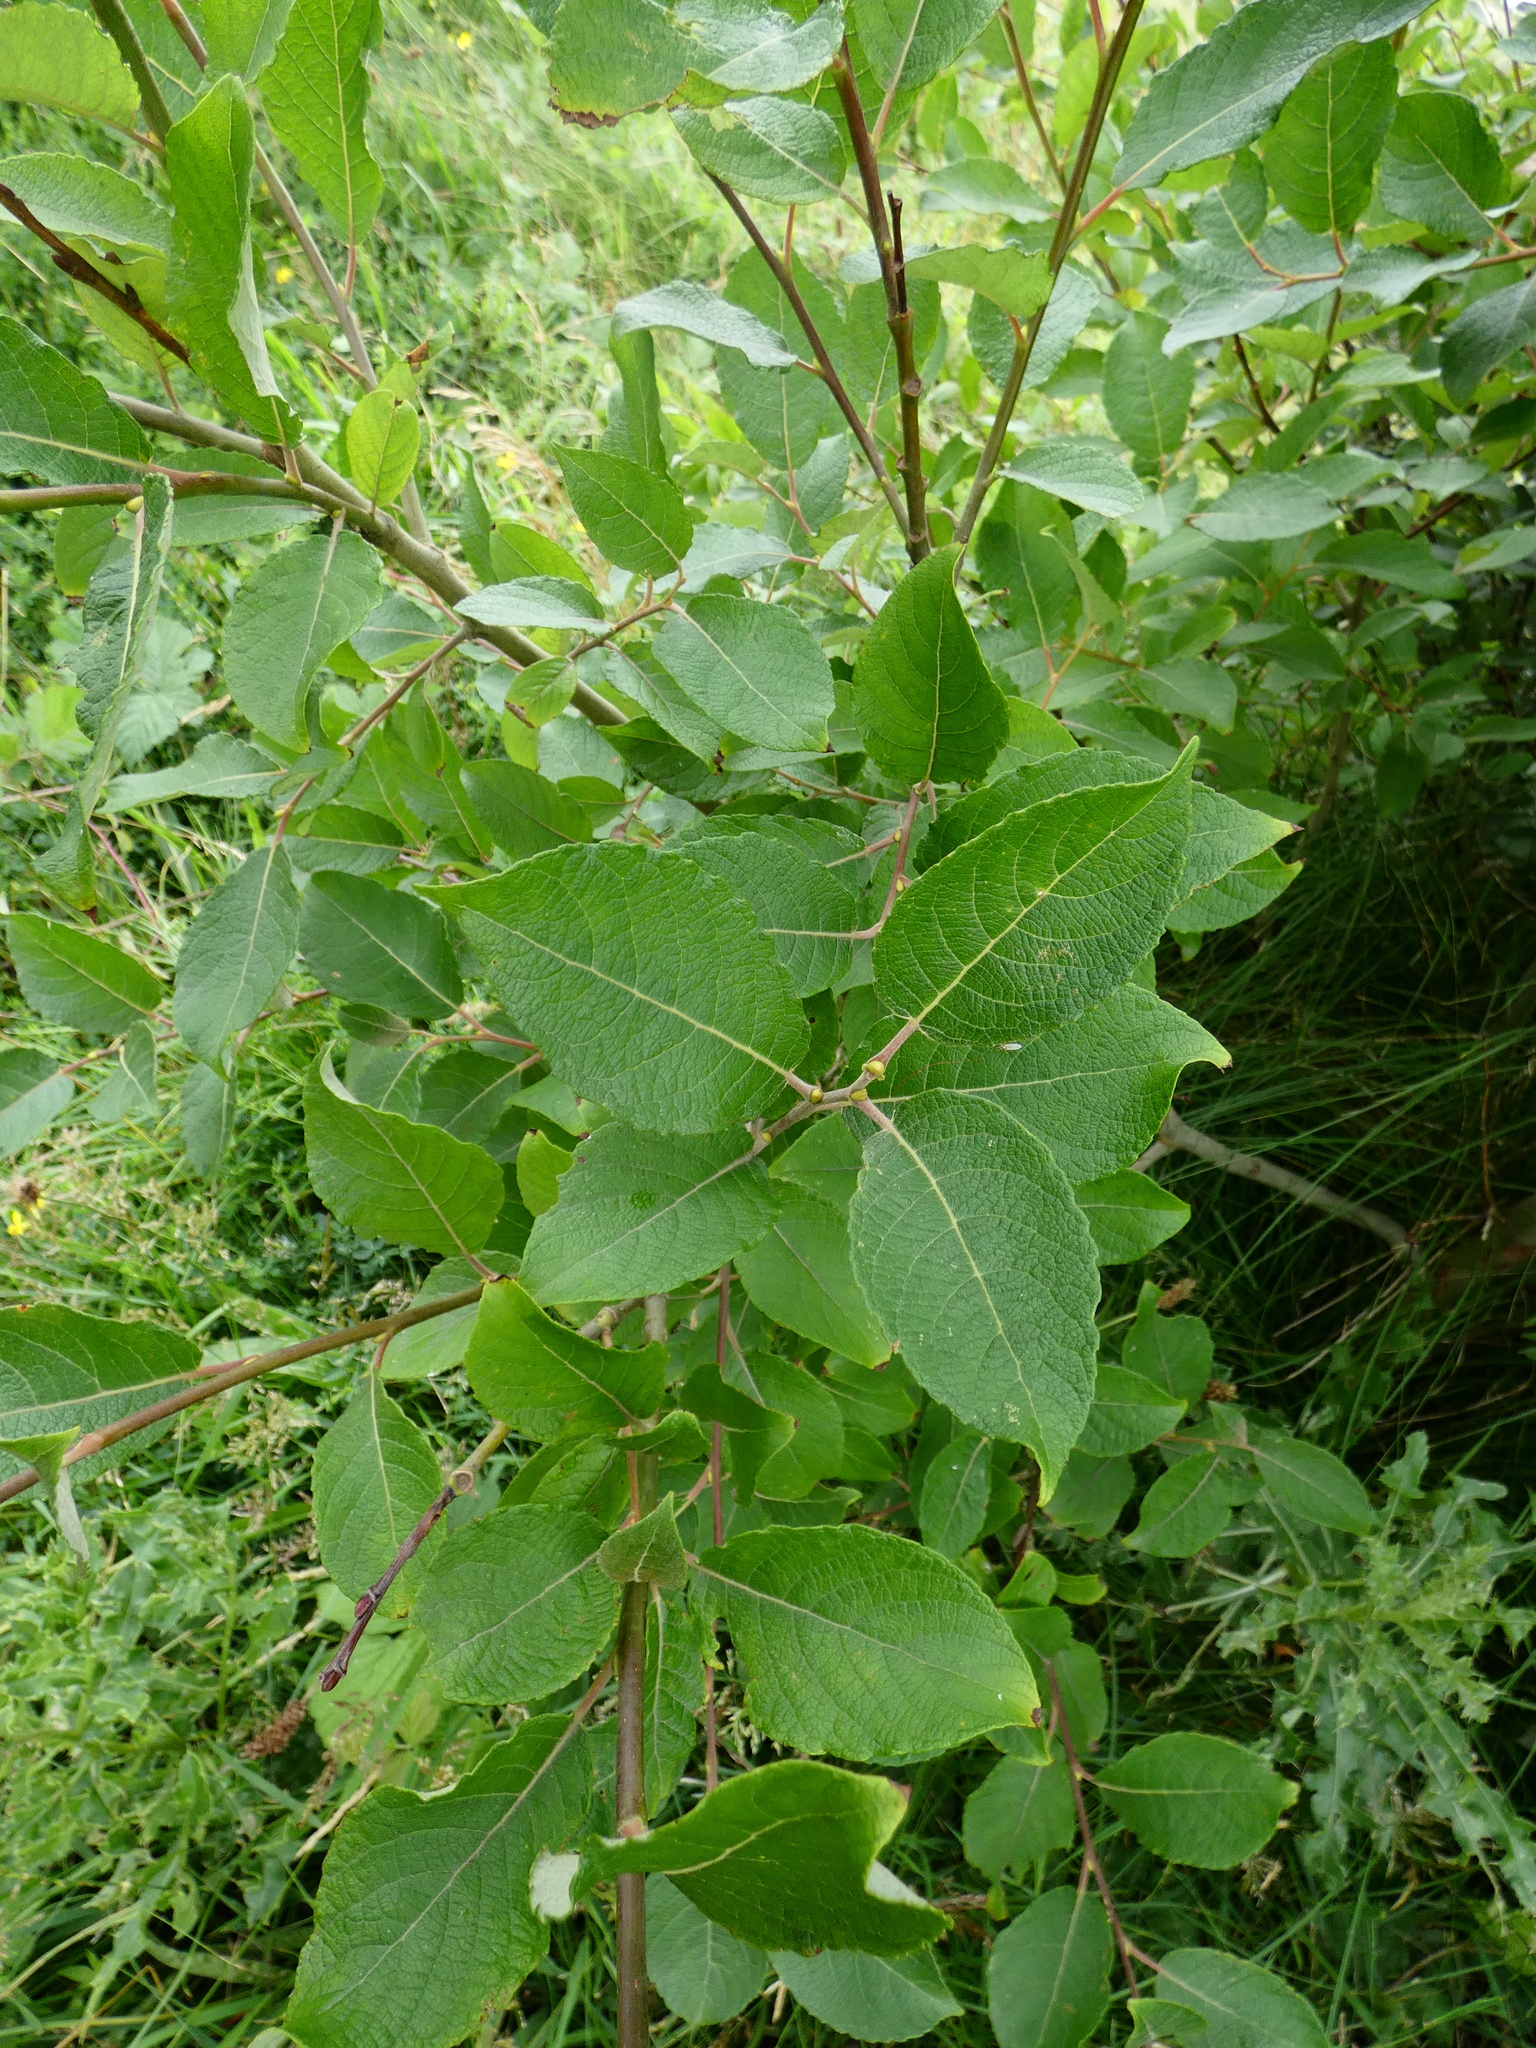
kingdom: Plantae
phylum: Tracheophyta
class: Magnoliopsida
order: Malpighiales
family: Salicaceae
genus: Salix
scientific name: Salix reichardtii
